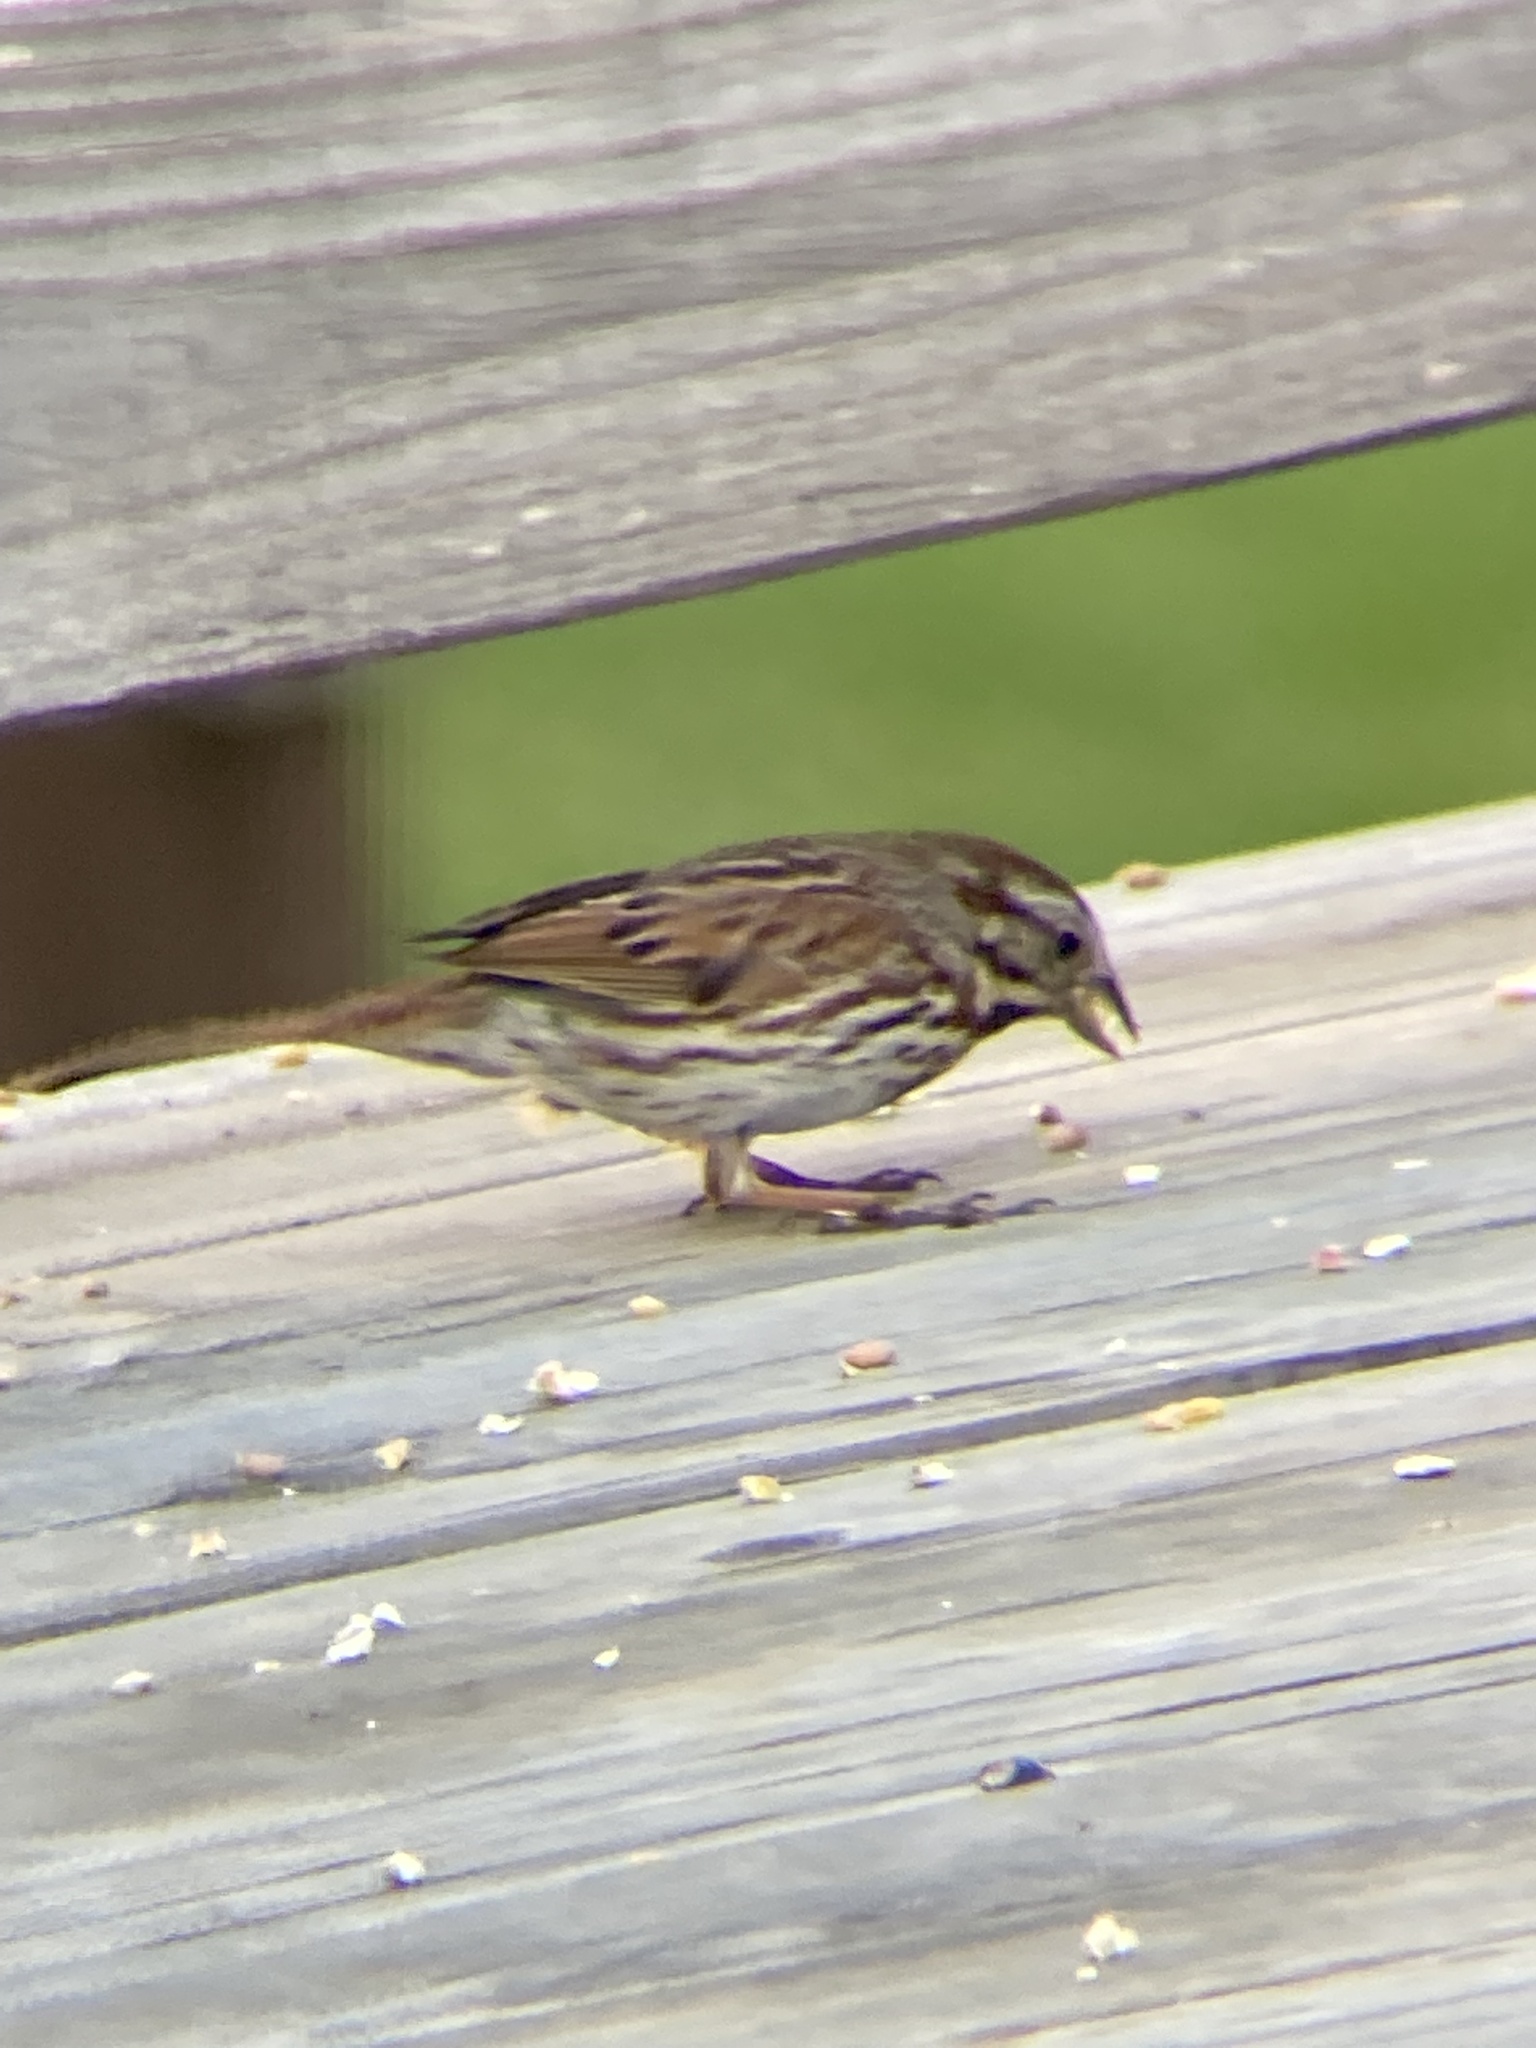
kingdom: Animalia
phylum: Chordata
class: Aves
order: Passeriformes
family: Passerellidae
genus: Melospiza
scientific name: Melospiza melodia
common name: Song sparrow
